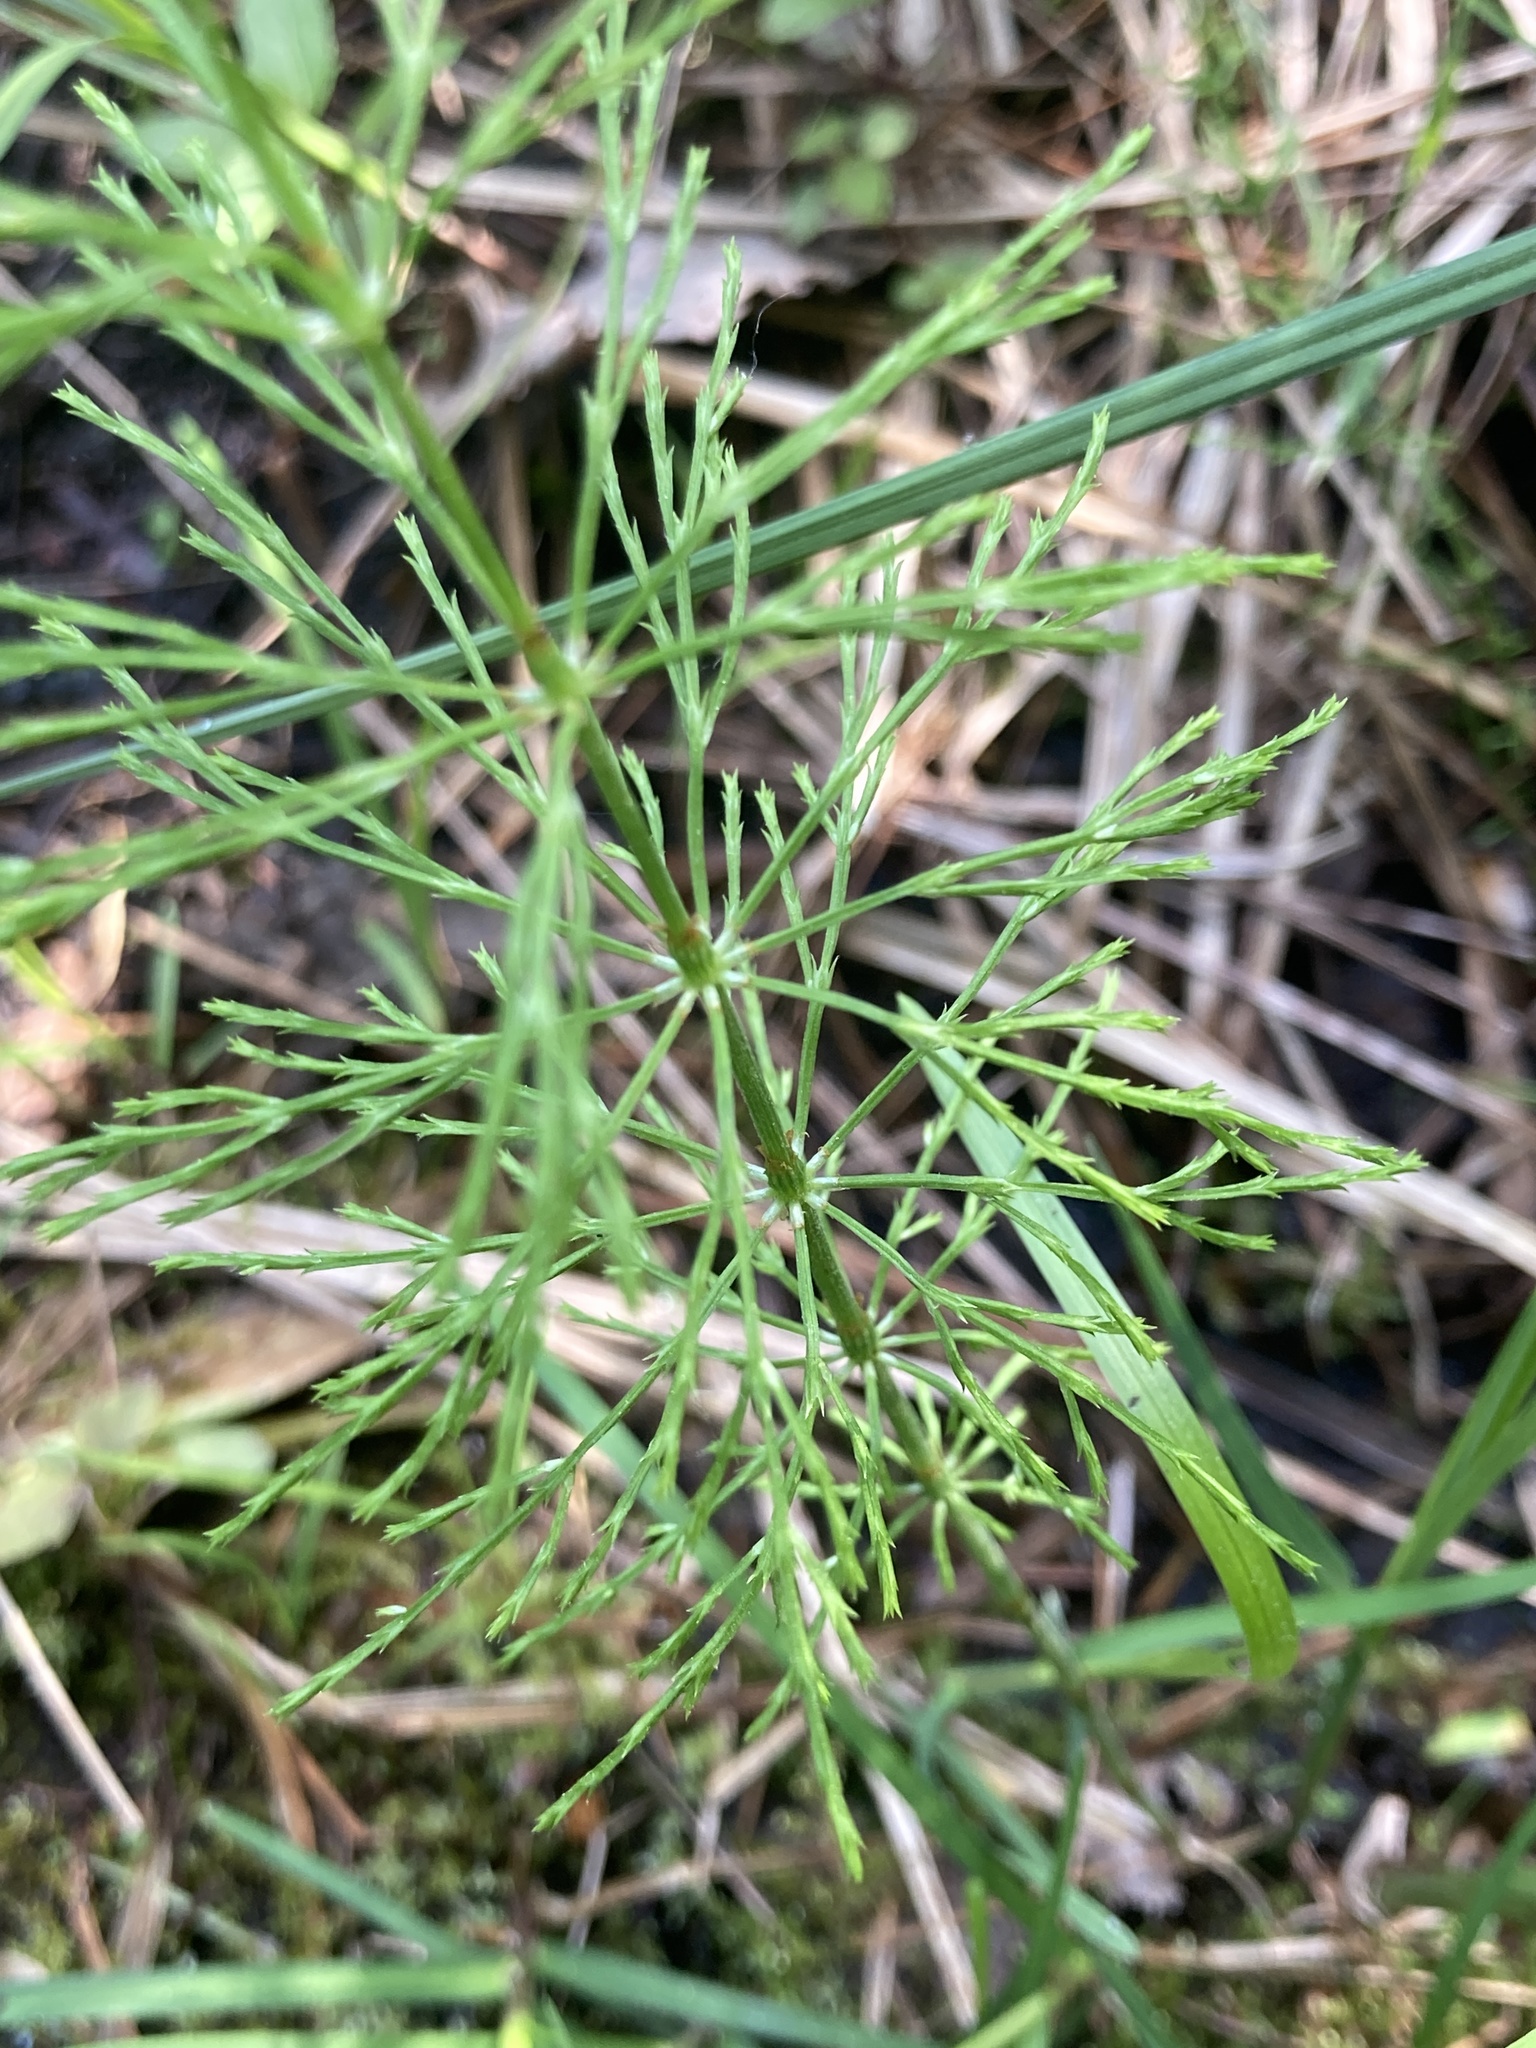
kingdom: Plantae
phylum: Tracheophyta
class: Polypodiopsida
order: Equisetales
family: Equisetaceae
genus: Equisetum
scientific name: Equisetum sylvaticum
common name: Wood horsetail
